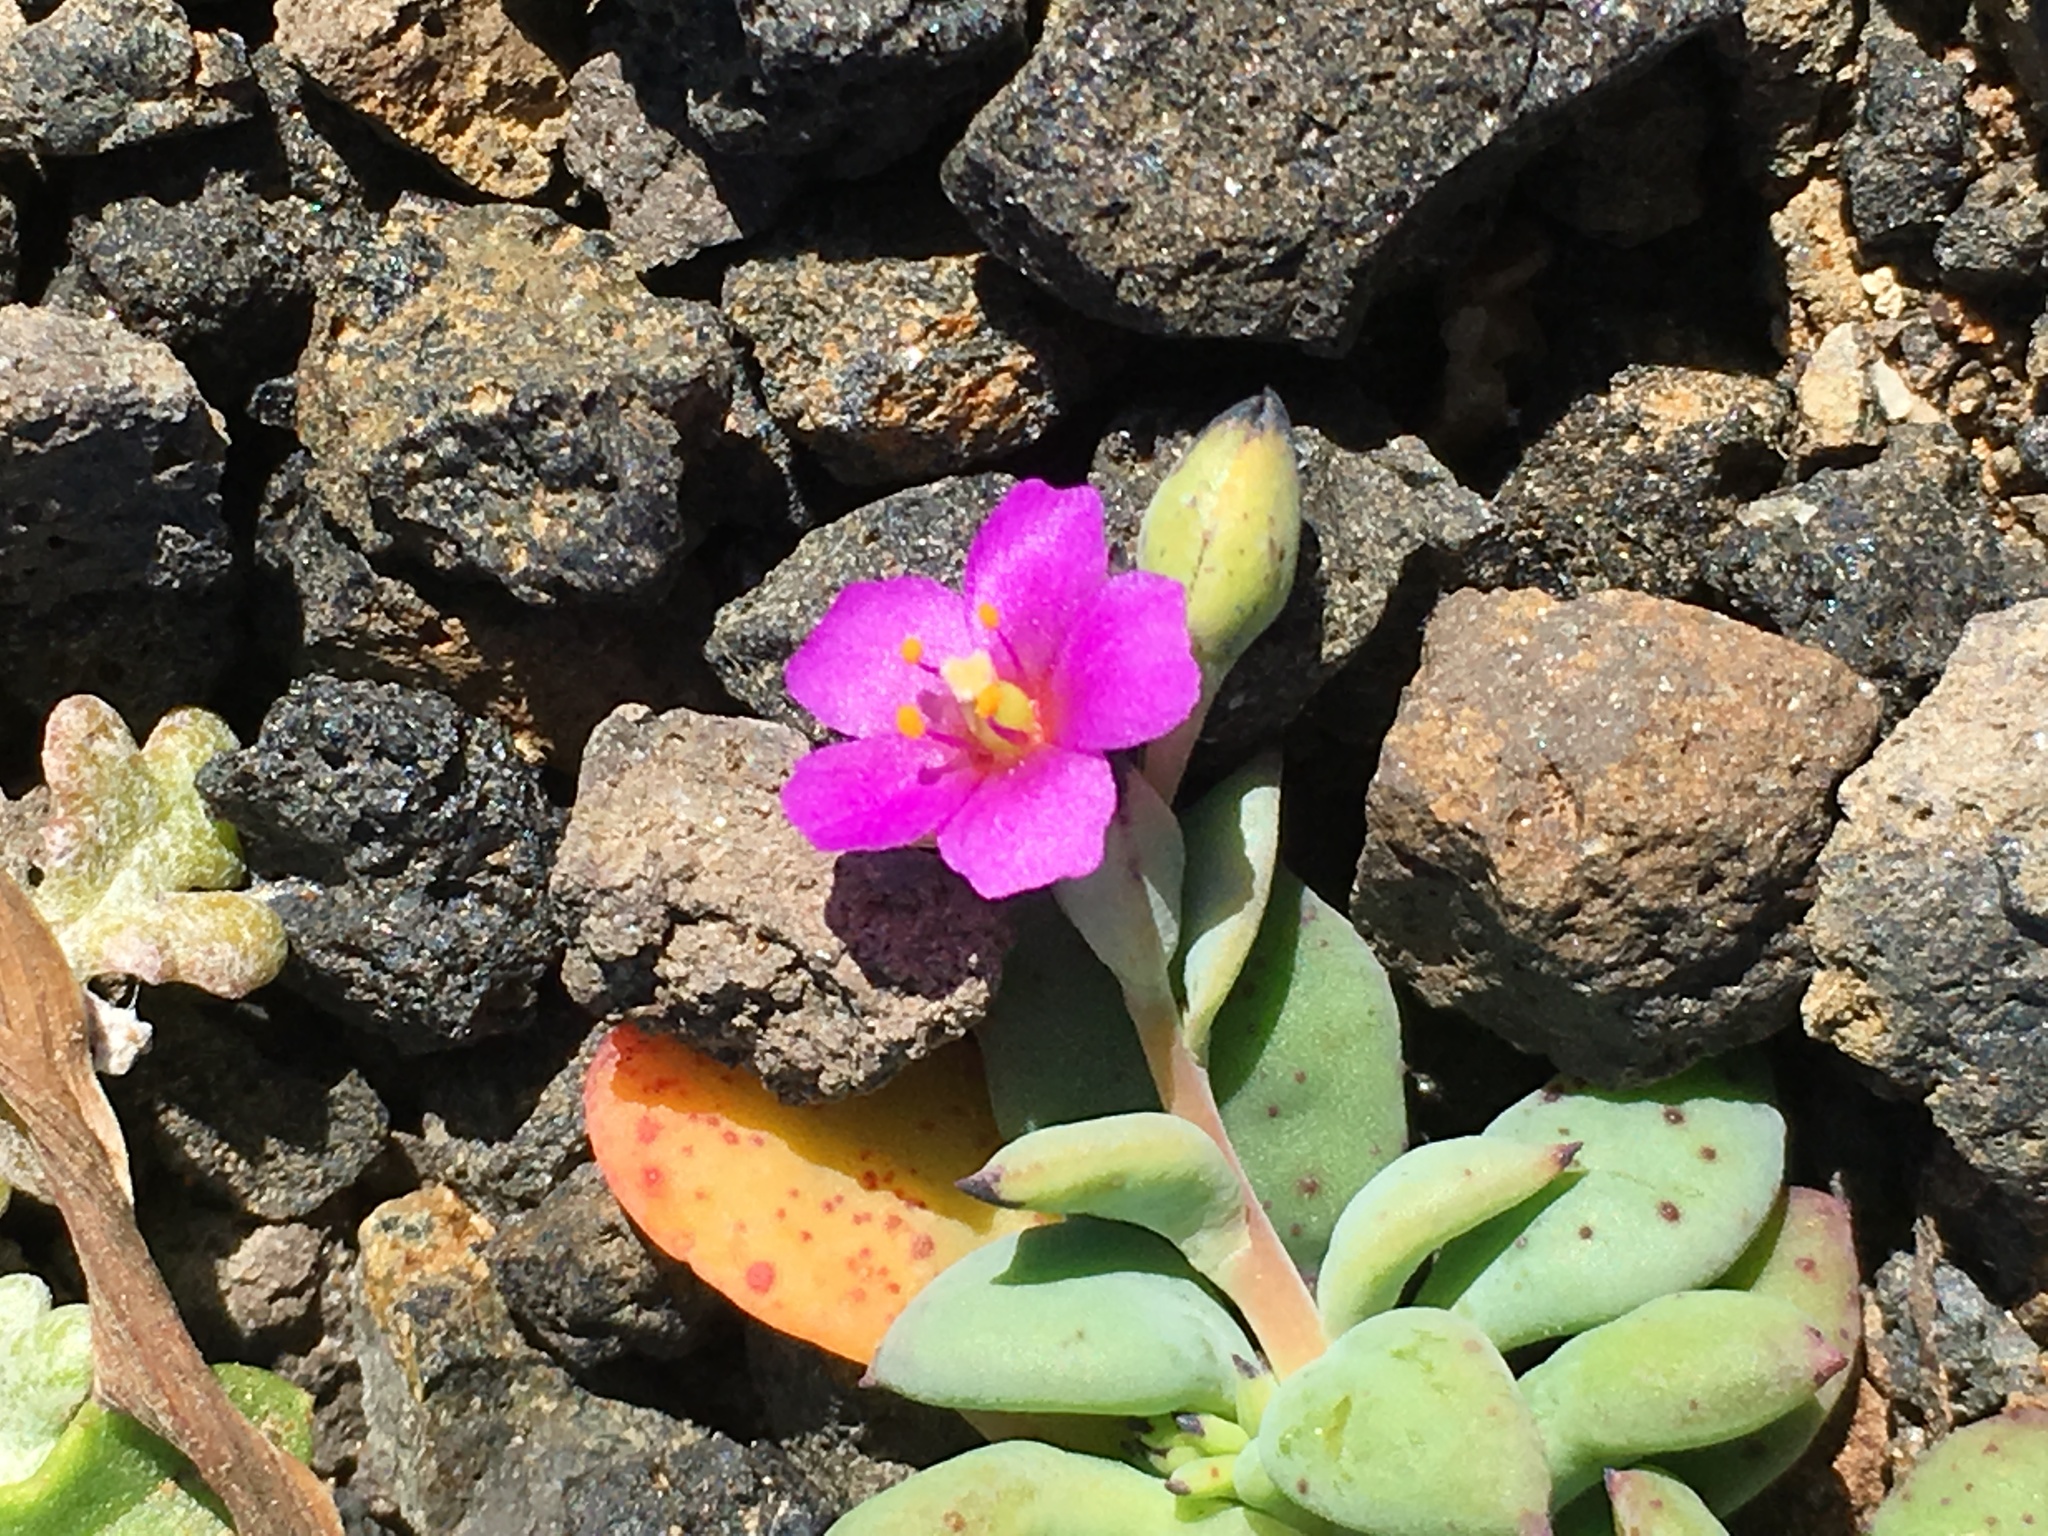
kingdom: Plantae
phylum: Tracheophyta
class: Magnoliopsida
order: Caryophyllales
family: Montiaceae
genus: Cistanthe
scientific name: Cistanthe maritima
